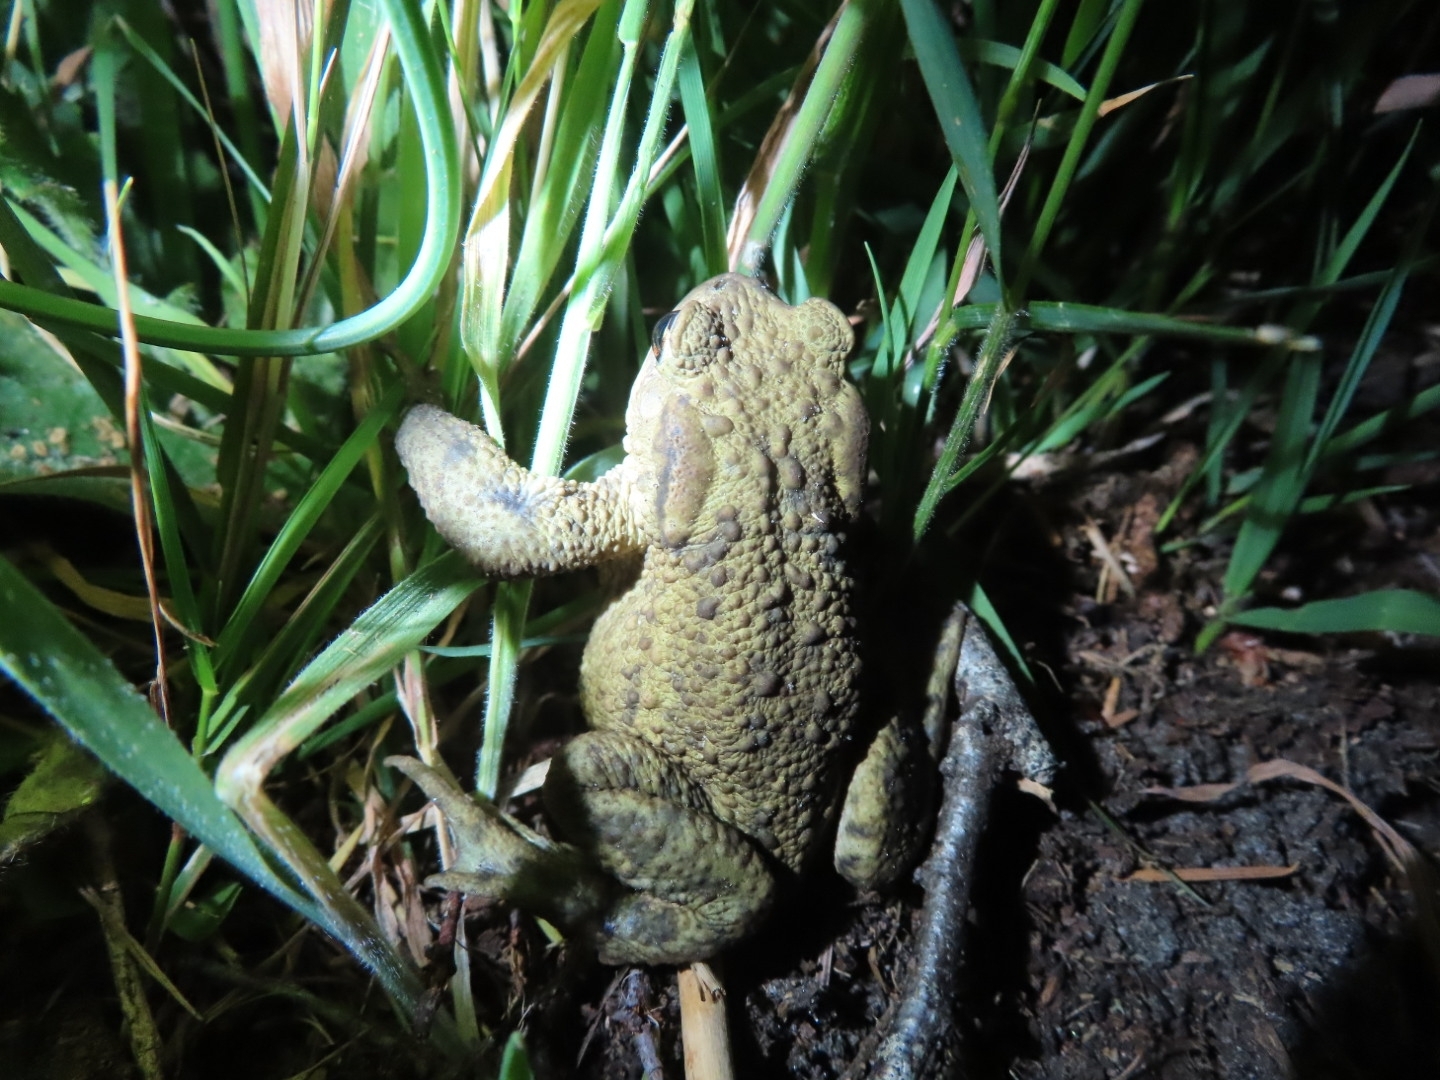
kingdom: Animalia
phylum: Chordata
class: Amphibia
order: Anura
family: Bufonidae
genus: Bufo
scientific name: Bufo bufo
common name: Common toad
